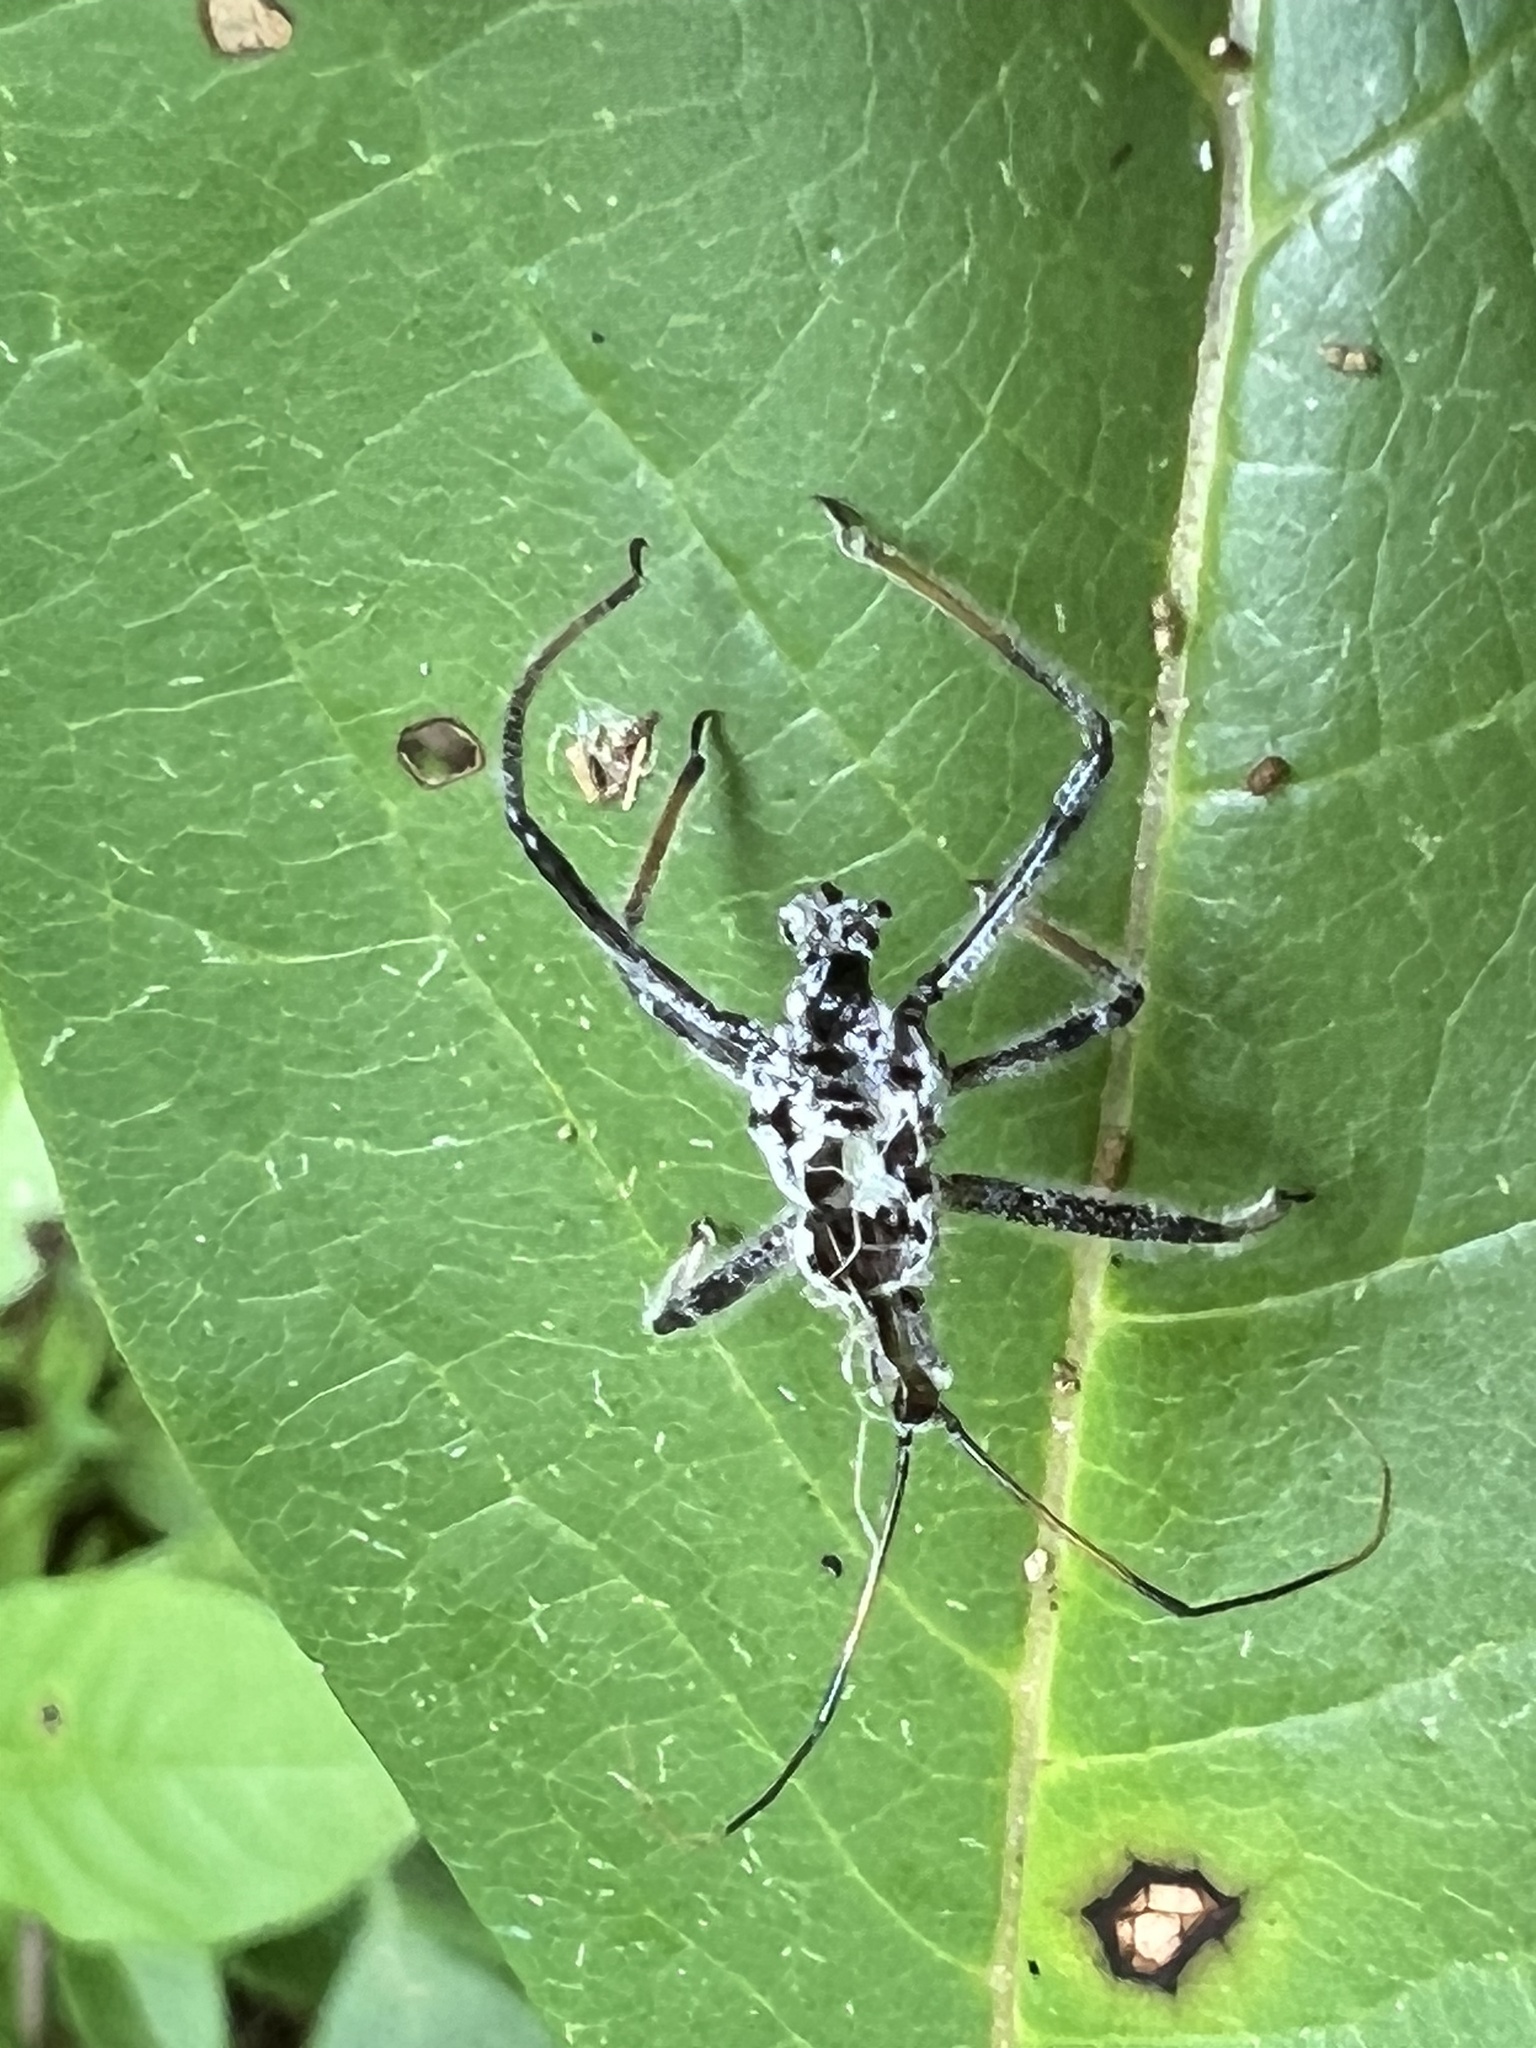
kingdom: Animalia
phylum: Arthropoda
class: Insecta
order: Hemiptera
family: Reduviidae
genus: Arilus
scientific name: Arilus cristatus
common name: North american wheel bug
